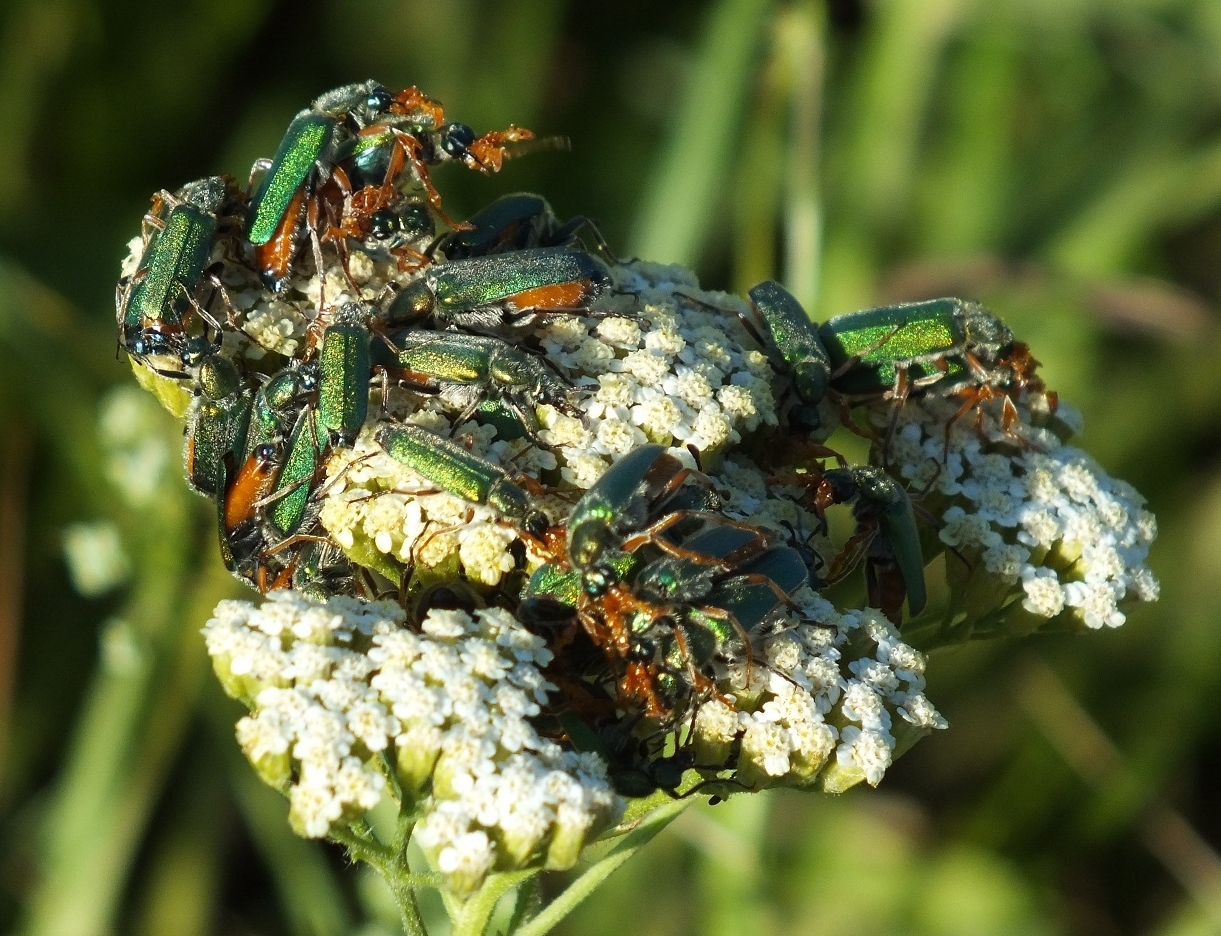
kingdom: Animalia
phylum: Arthropoda
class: Insecta
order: Coleoptera
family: Meloidae
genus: Cerocoma
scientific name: Cerocoma schreberi
